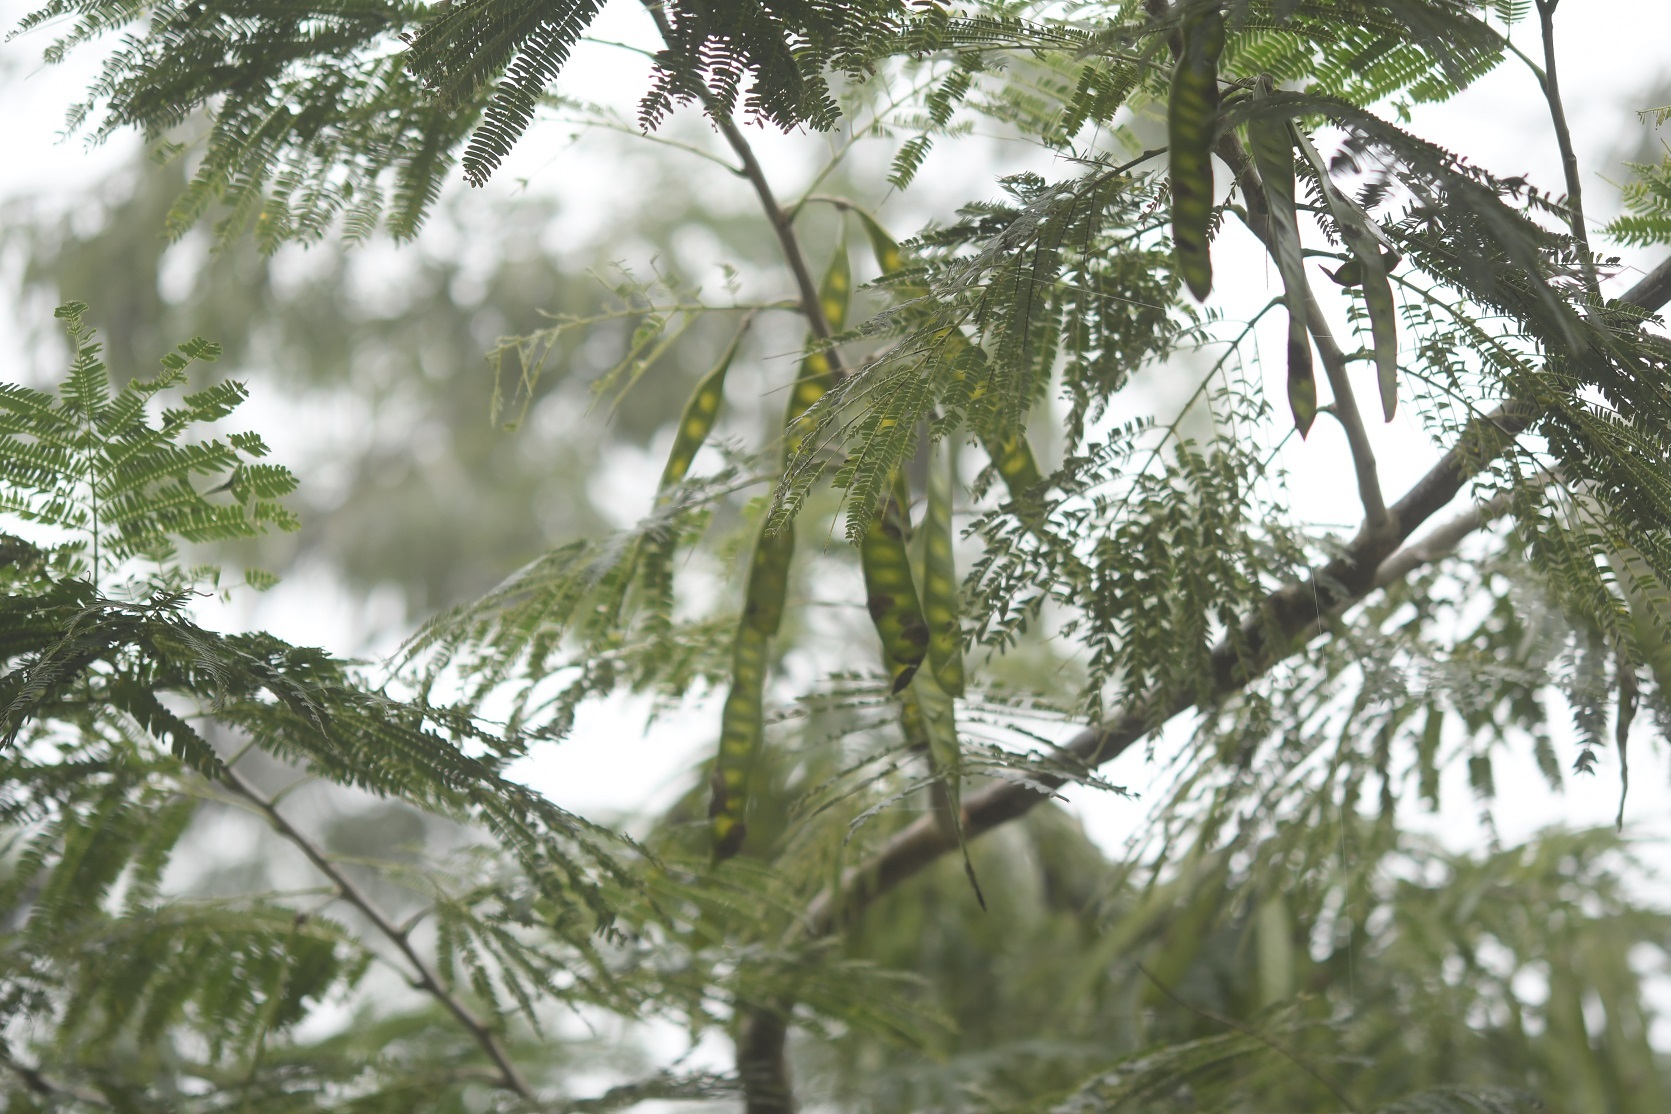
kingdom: Plantae
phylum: Tracheophyta
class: Magnoliopsida
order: Fabales
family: Fabaceae
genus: Leucaena
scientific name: Leucaena diversifolia
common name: Red leucaena
